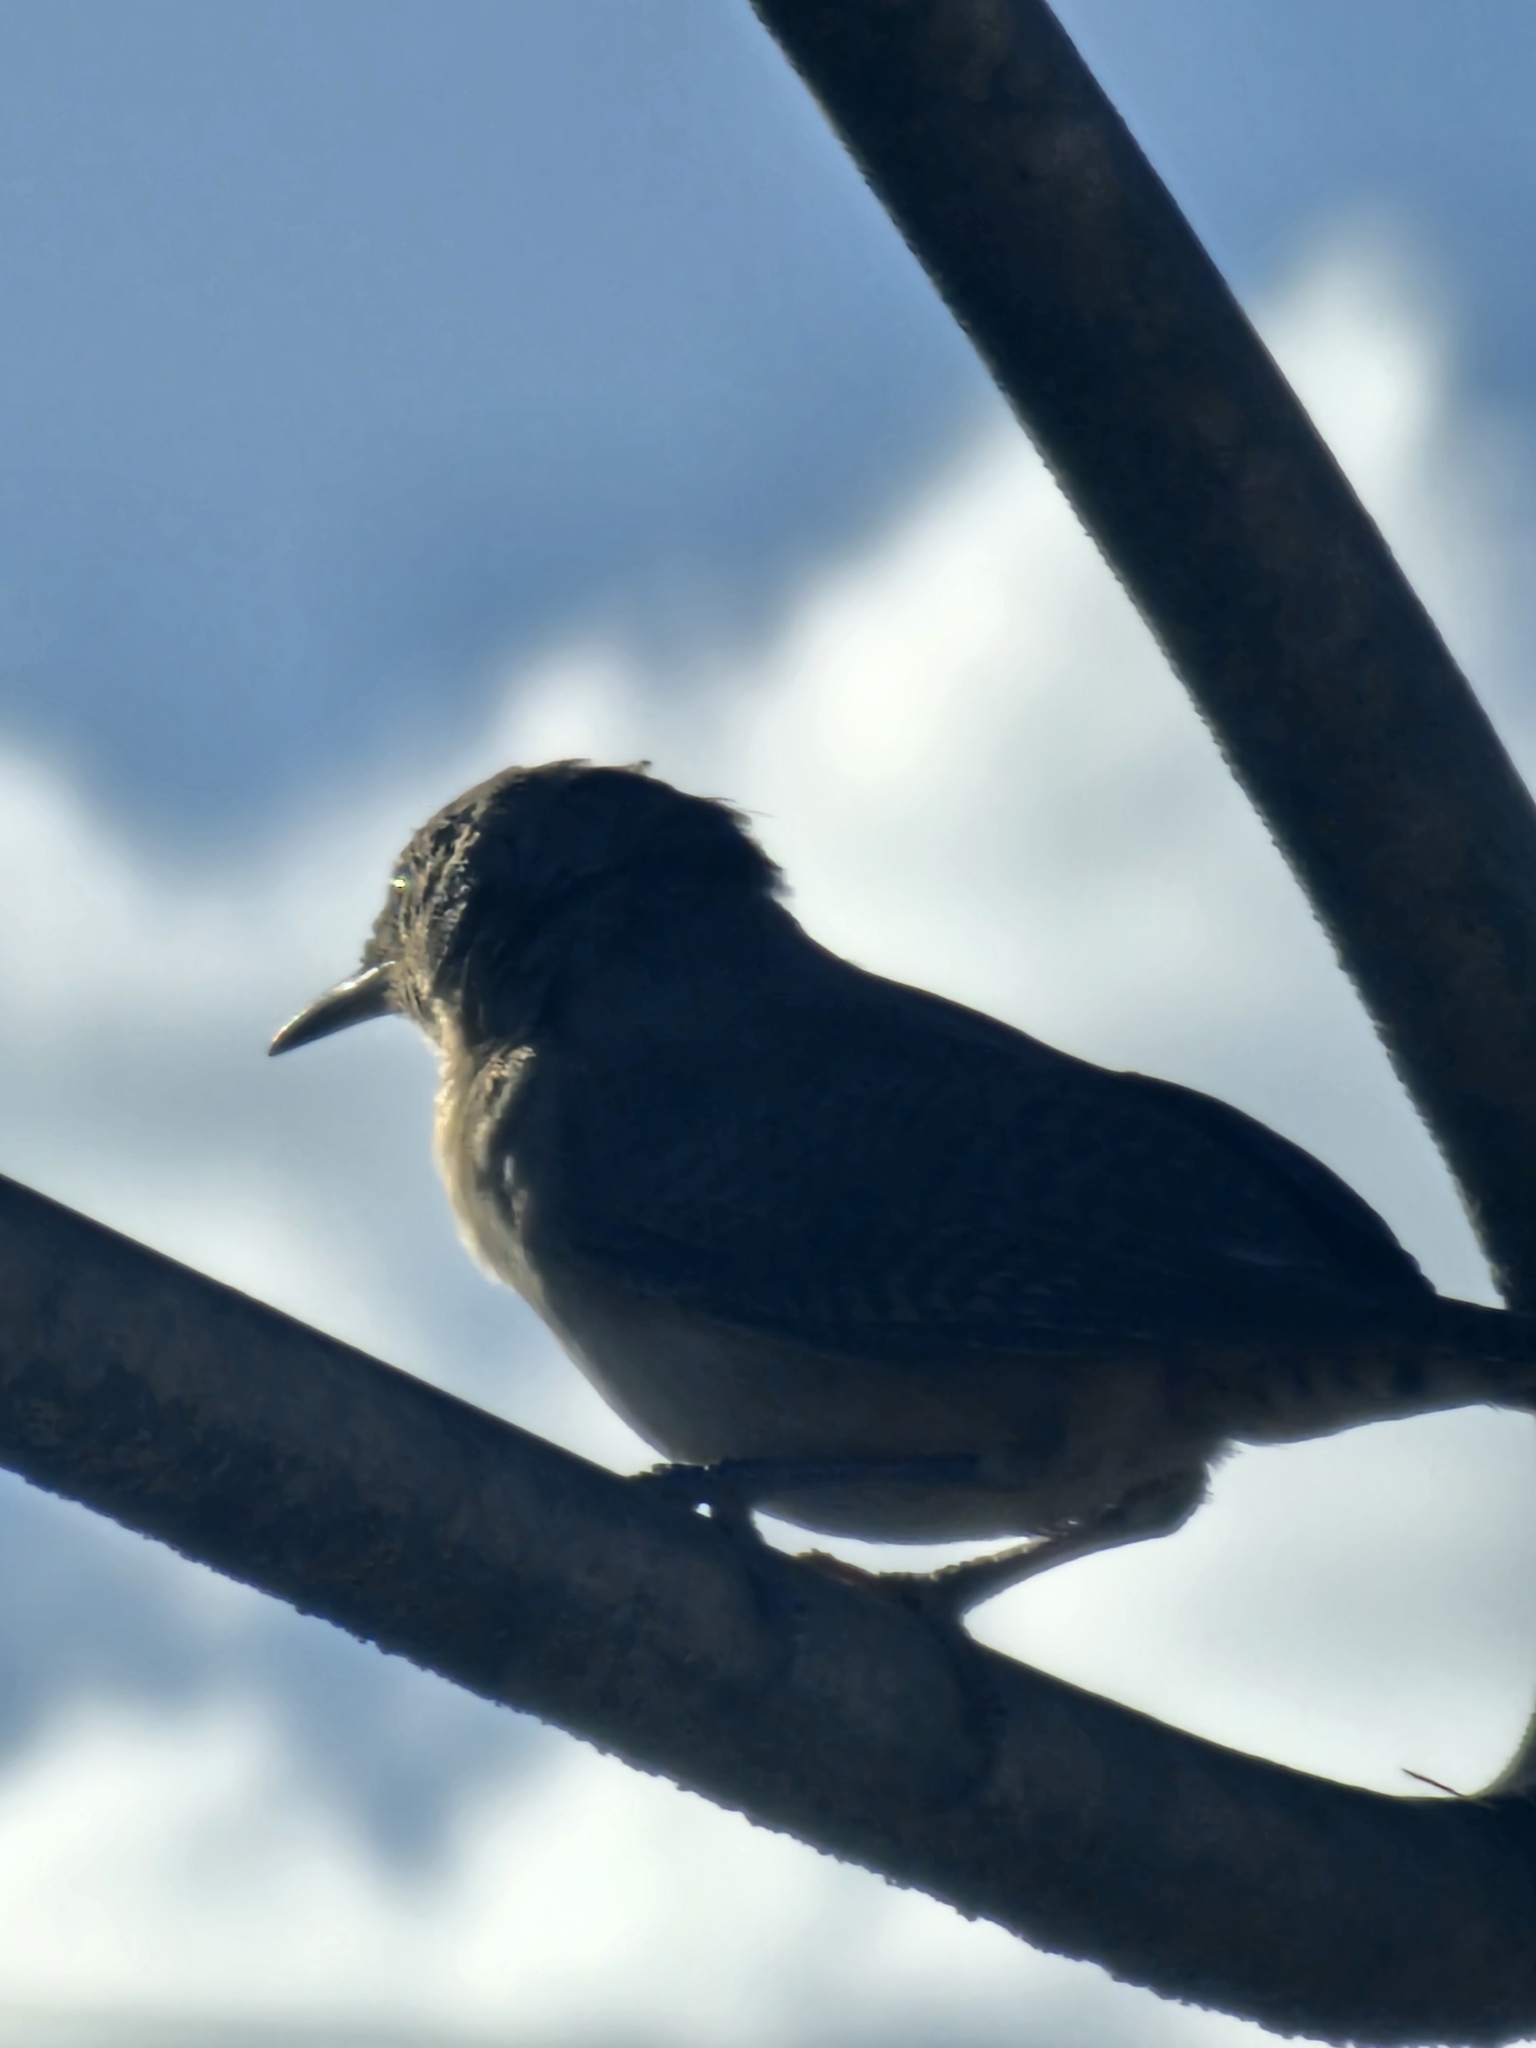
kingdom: Animalia
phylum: Chordata
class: Aves
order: Passeriformes
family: Troglodytidae
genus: Troglodytes
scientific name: Troglodytes aedon
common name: House wren
